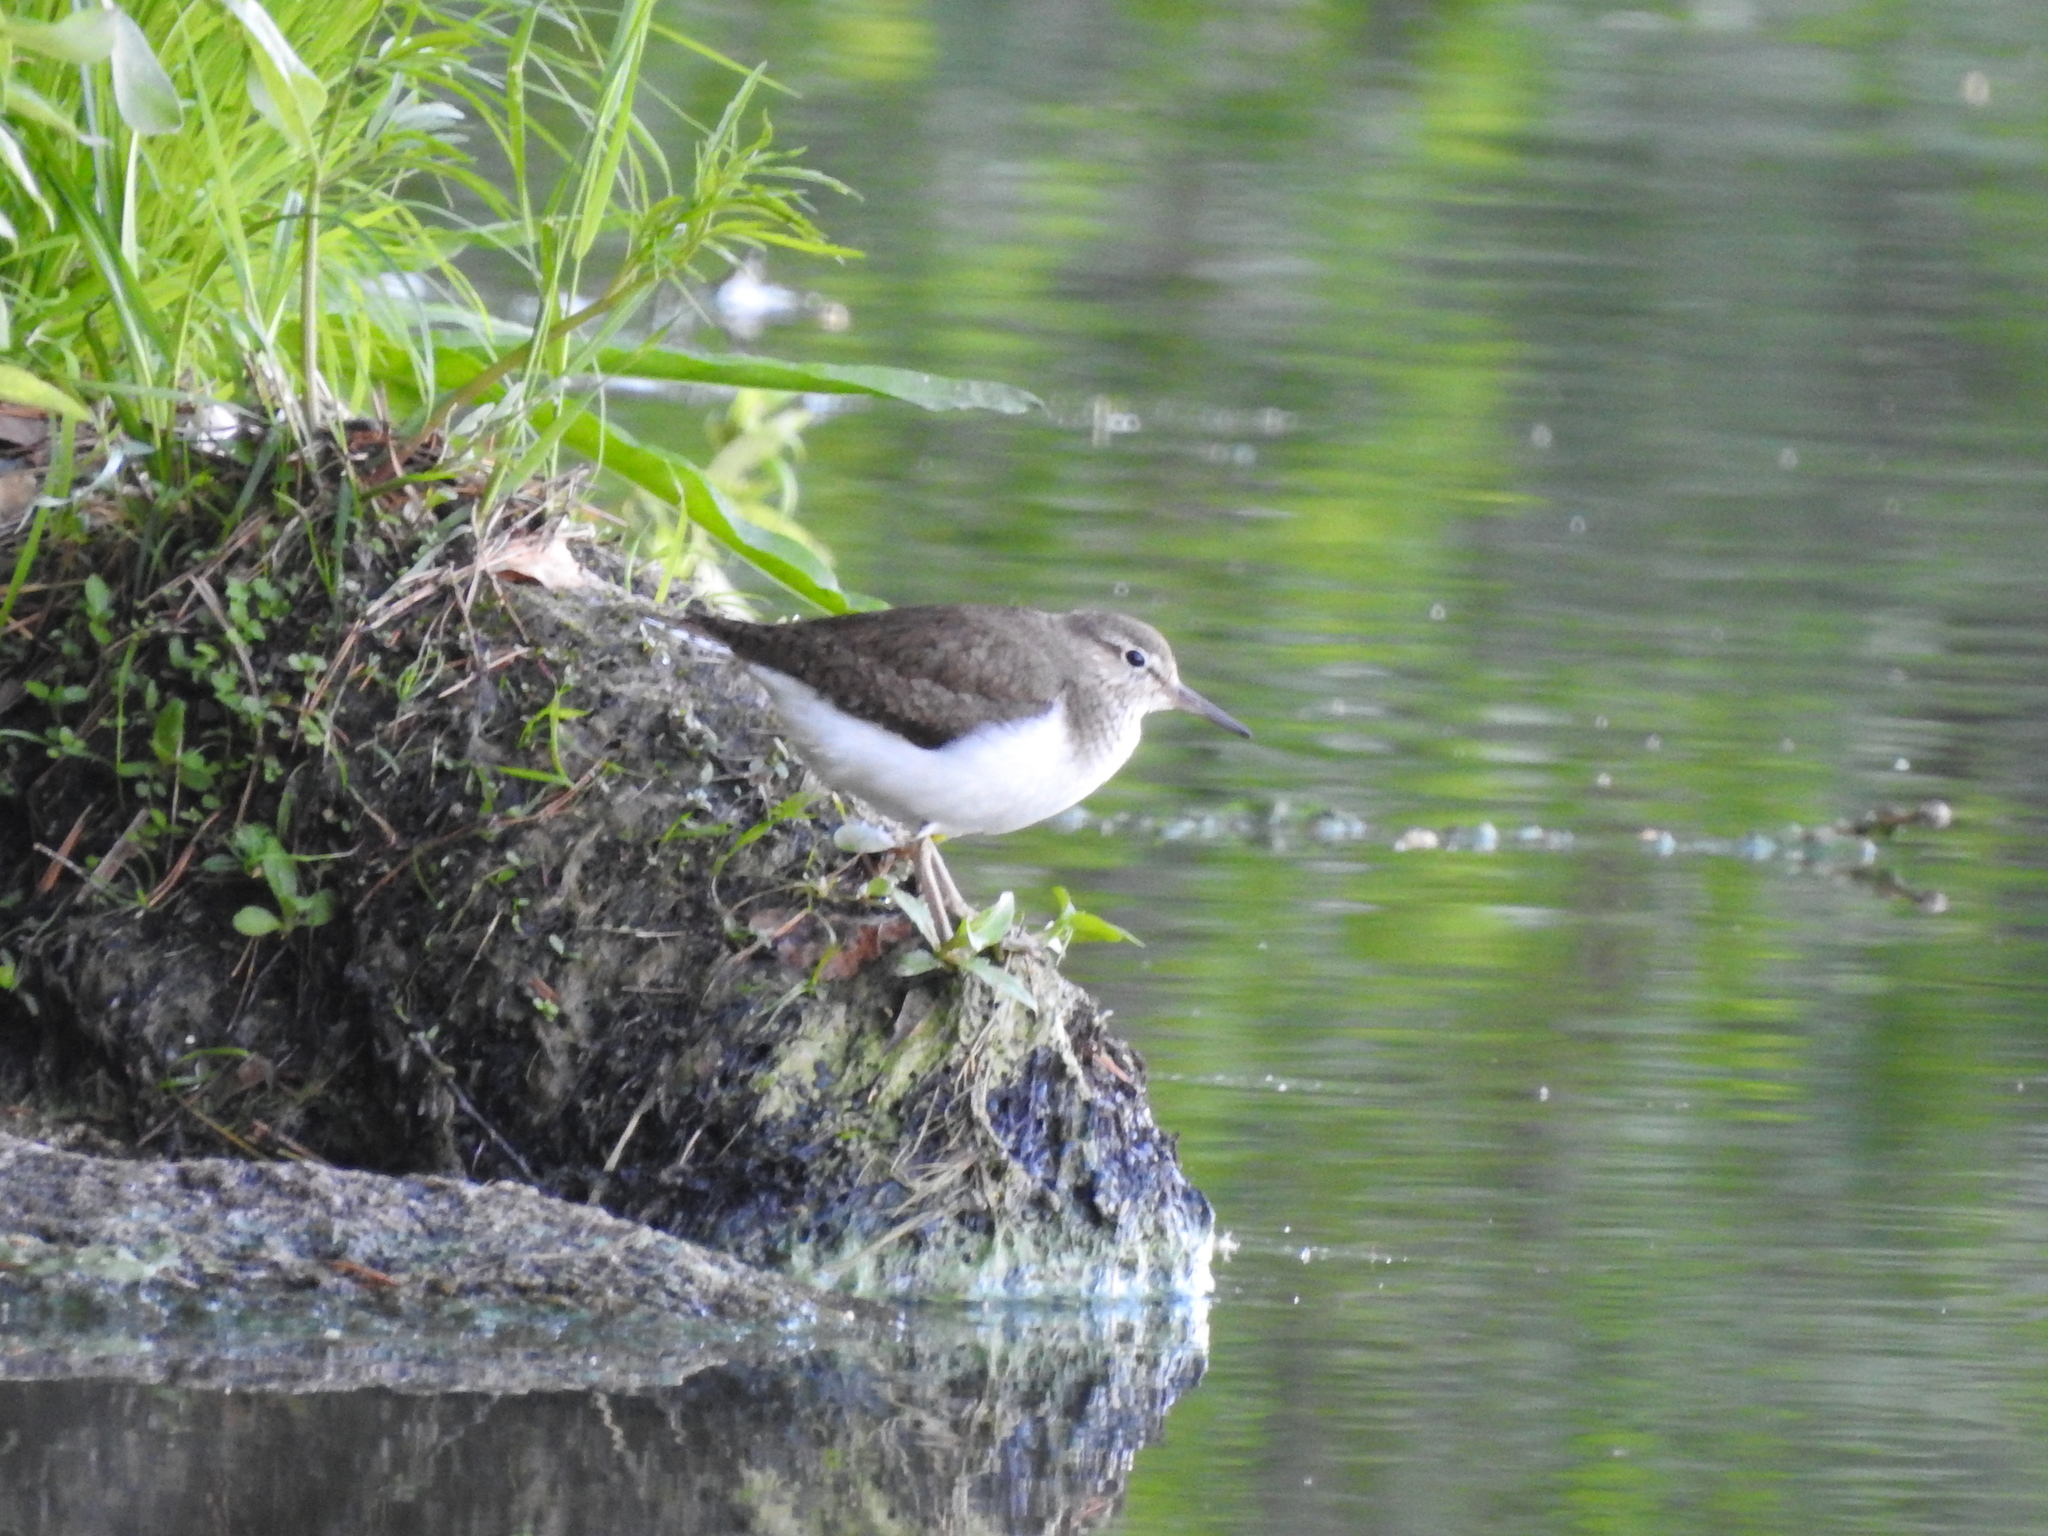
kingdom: Animalia
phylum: Chordata
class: Aves
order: Charadriiformes
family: Scolopacidae
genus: Actitis
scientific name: Actitis hypoleucos
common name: Common sandpiper
